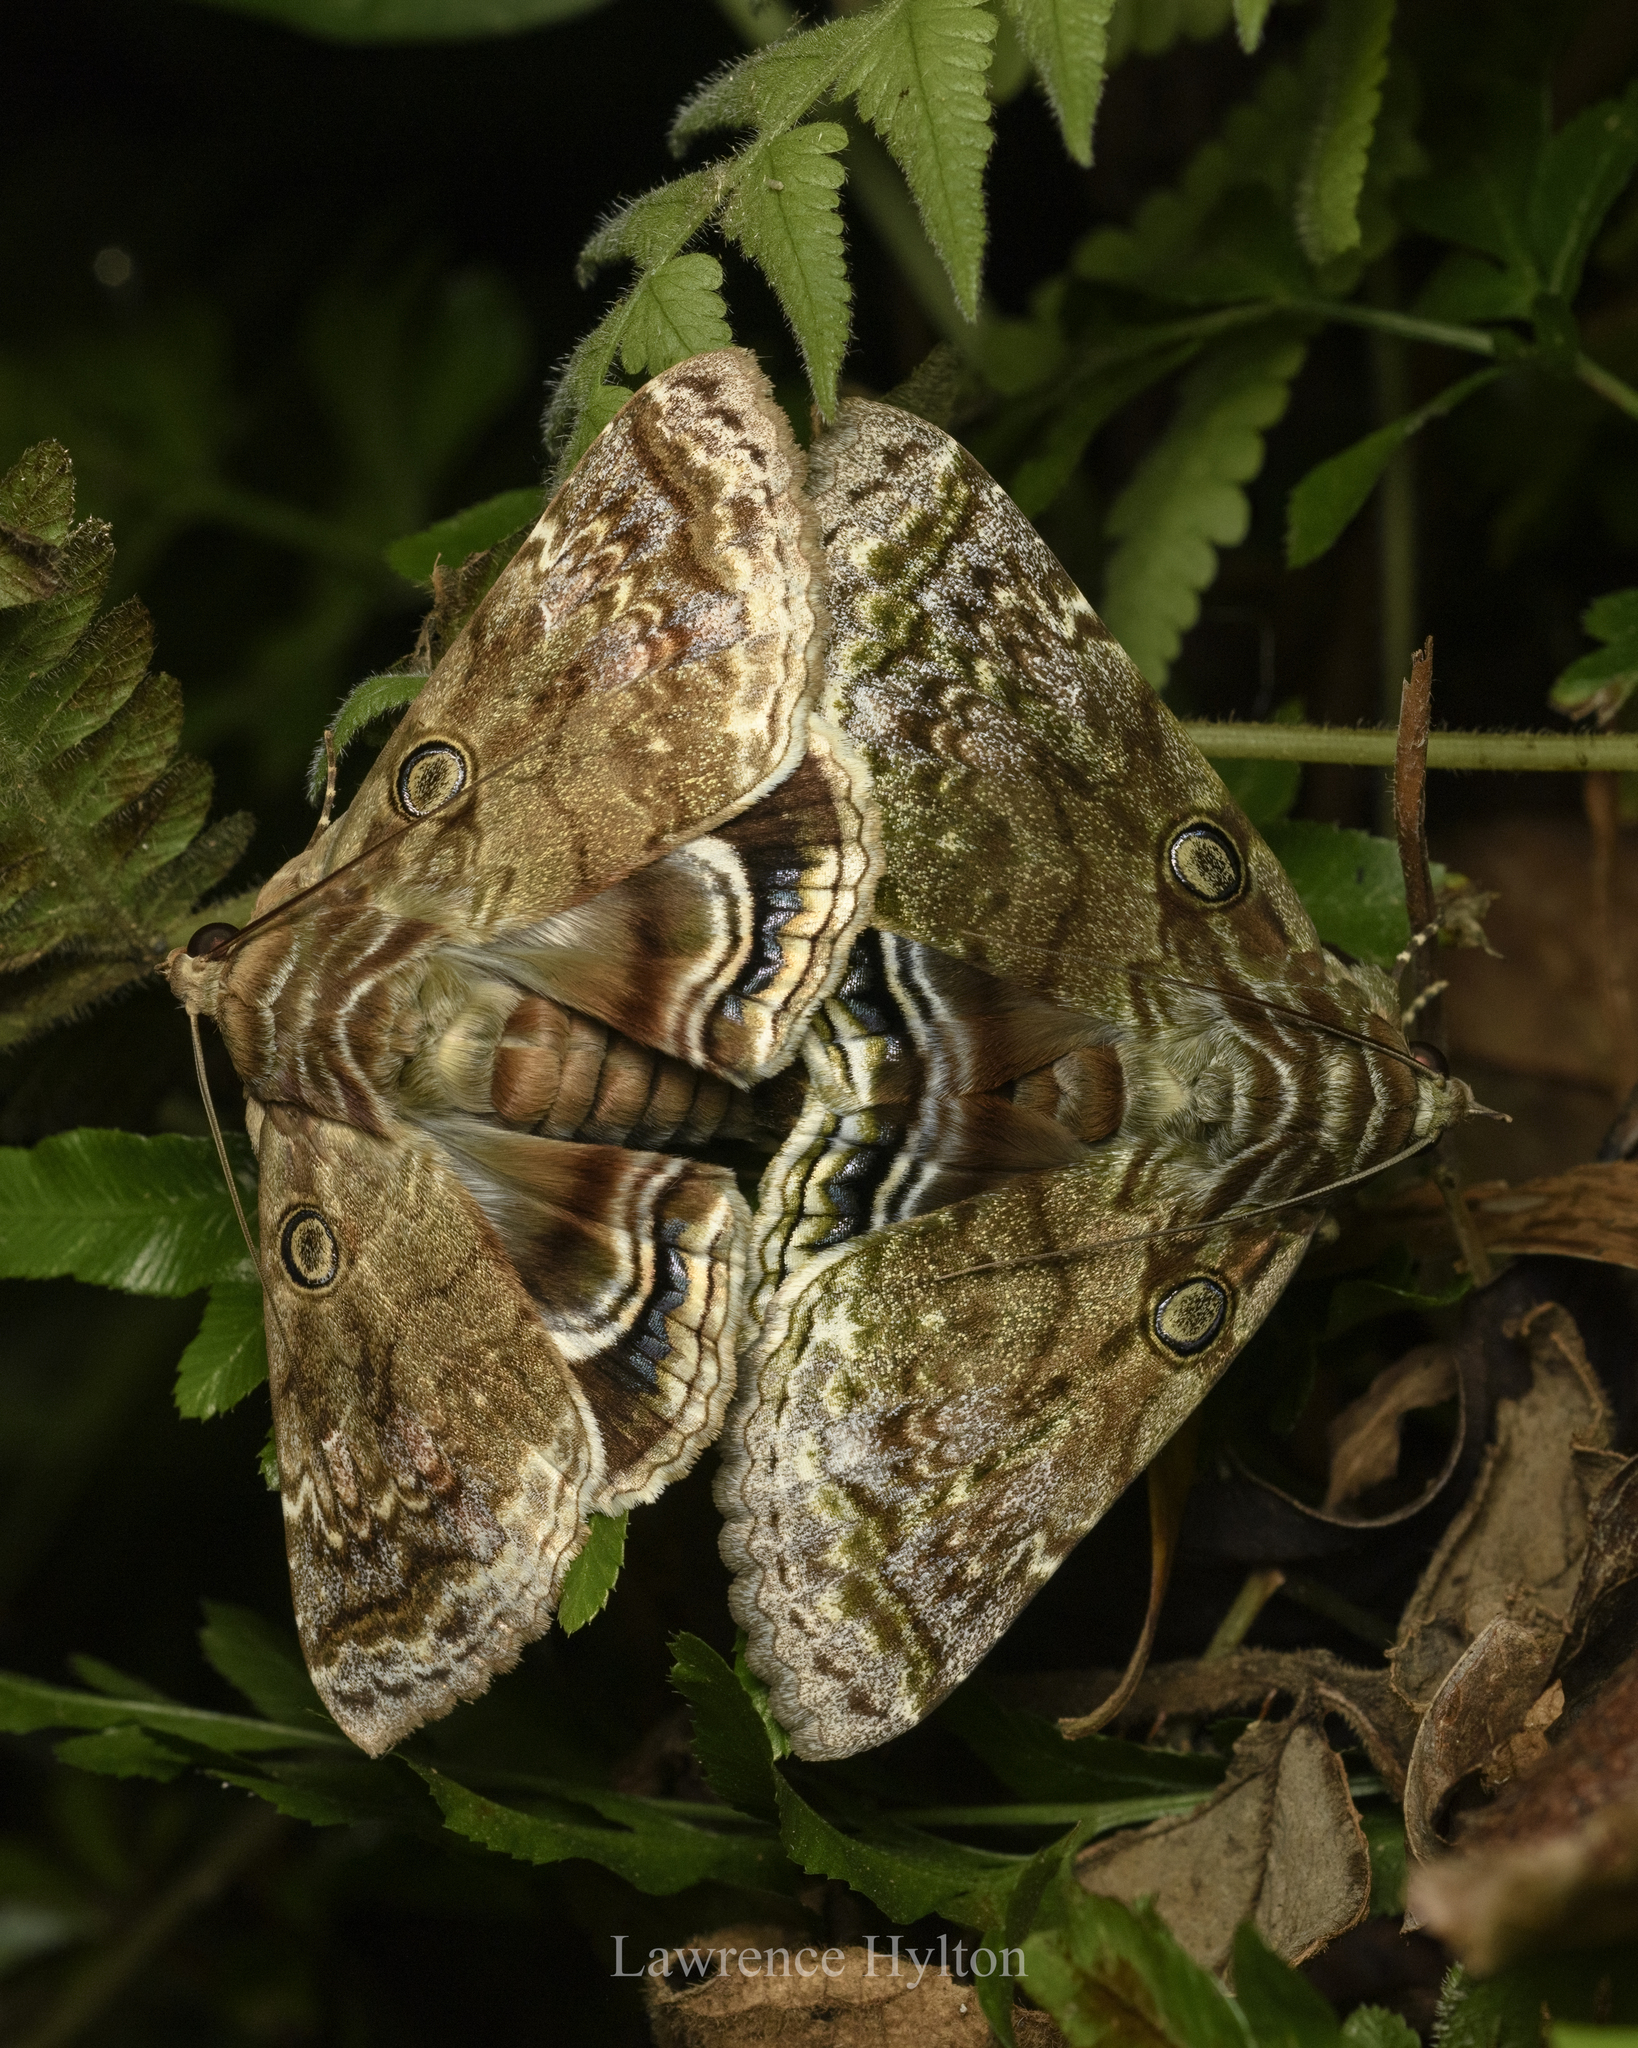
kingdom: Animalia
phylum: Arthropoda
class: Insecta
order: Lepidoptera
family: Erebidae
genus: Cyclodes
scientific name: Cyclodes omma
